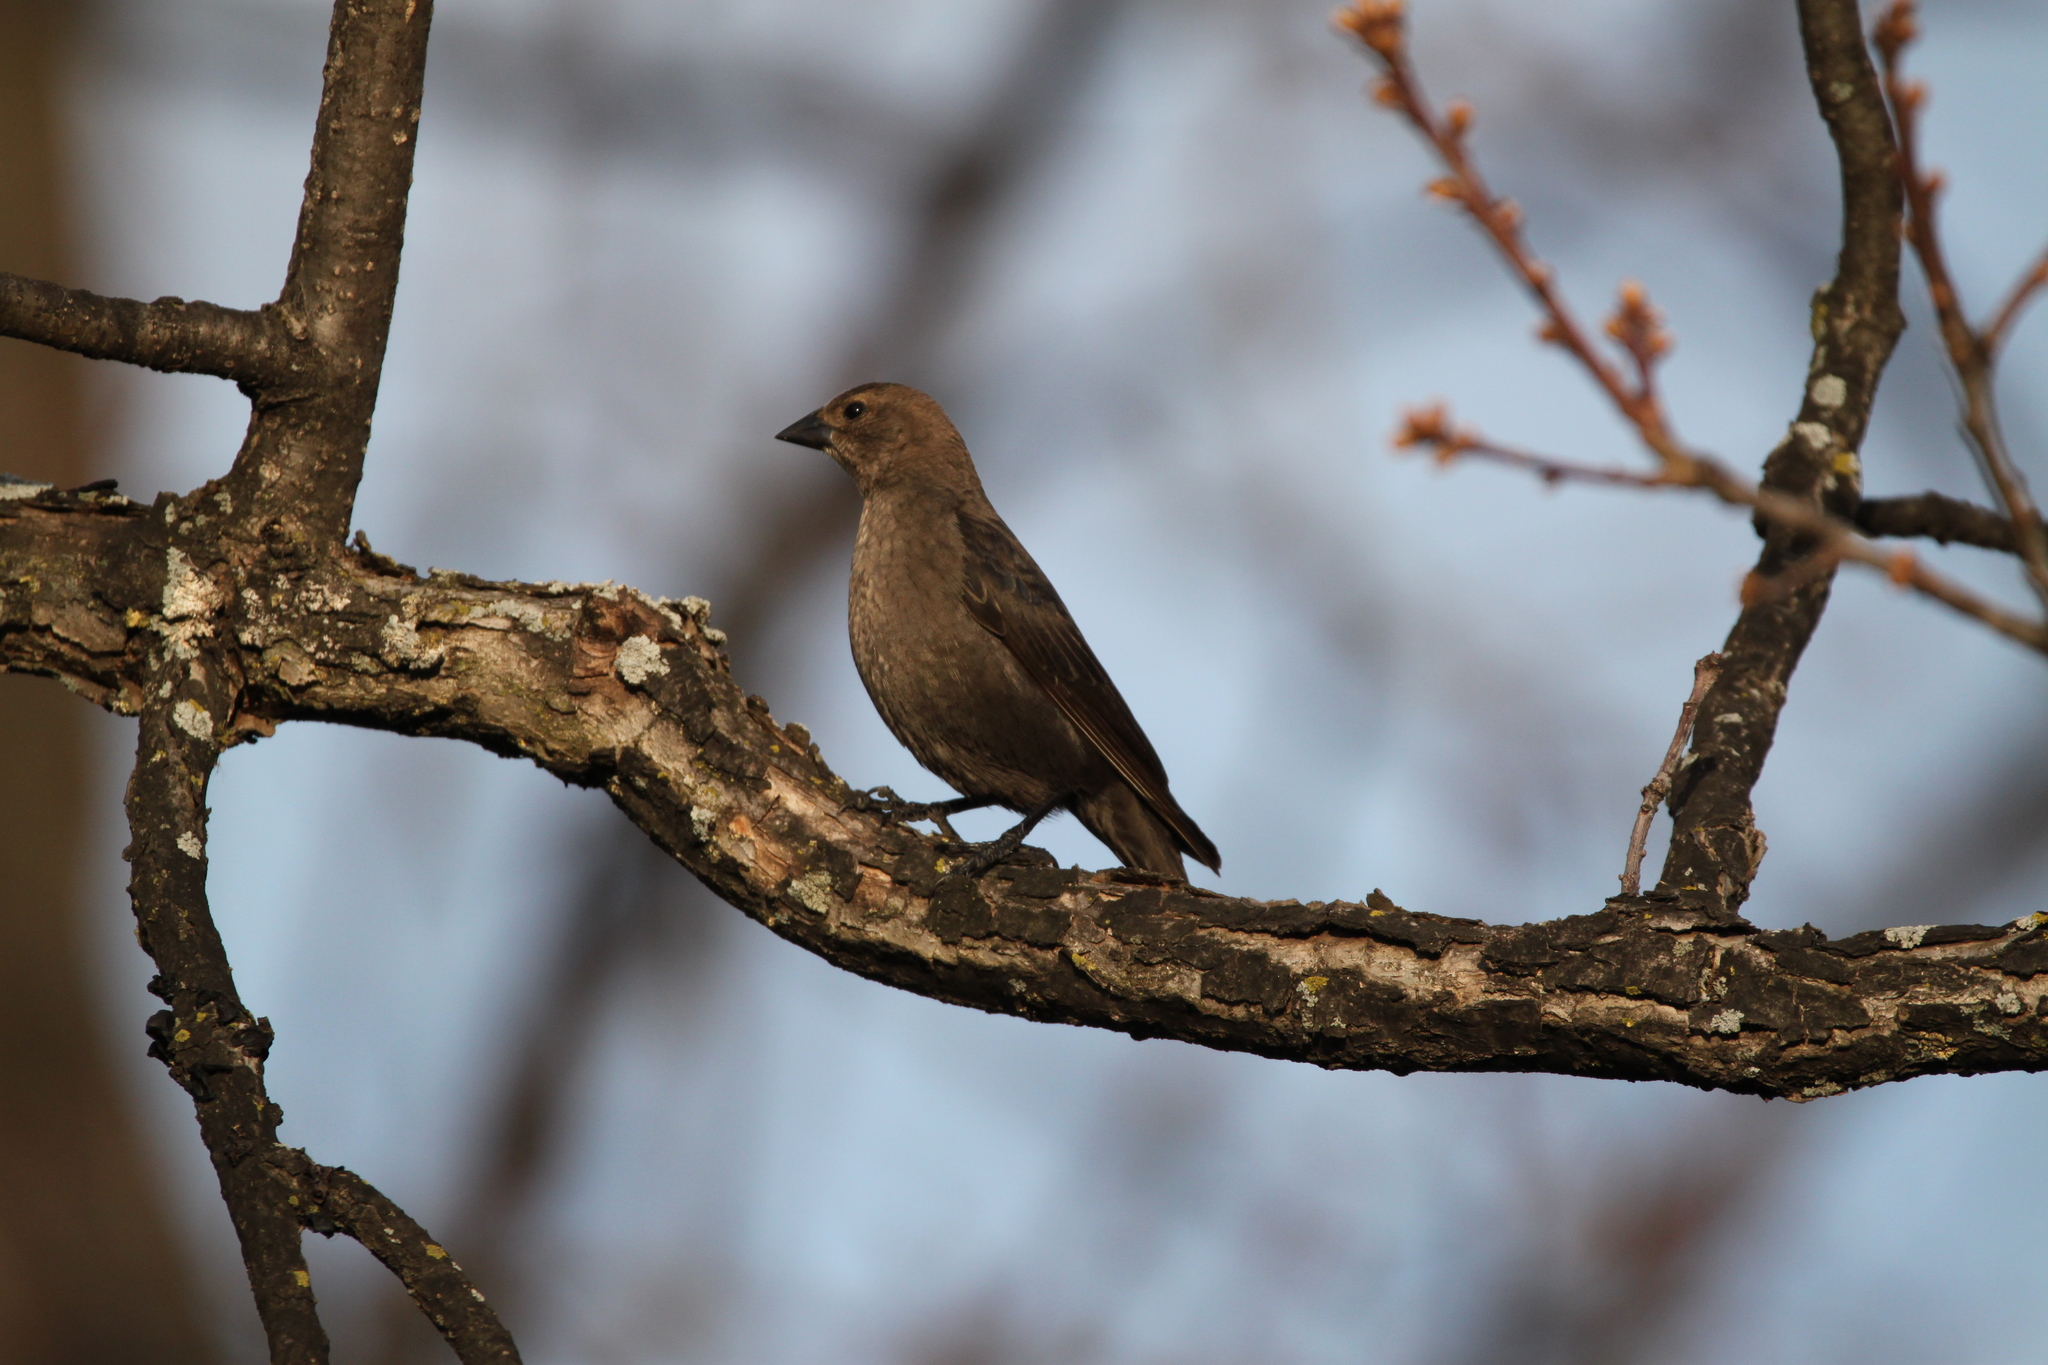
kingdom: Animalia
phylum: Chordata
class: Aves
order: Passeriformes
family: Icteridae
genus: Molothrus
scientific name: Molothrus ater
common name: Brown-headed cowbird
